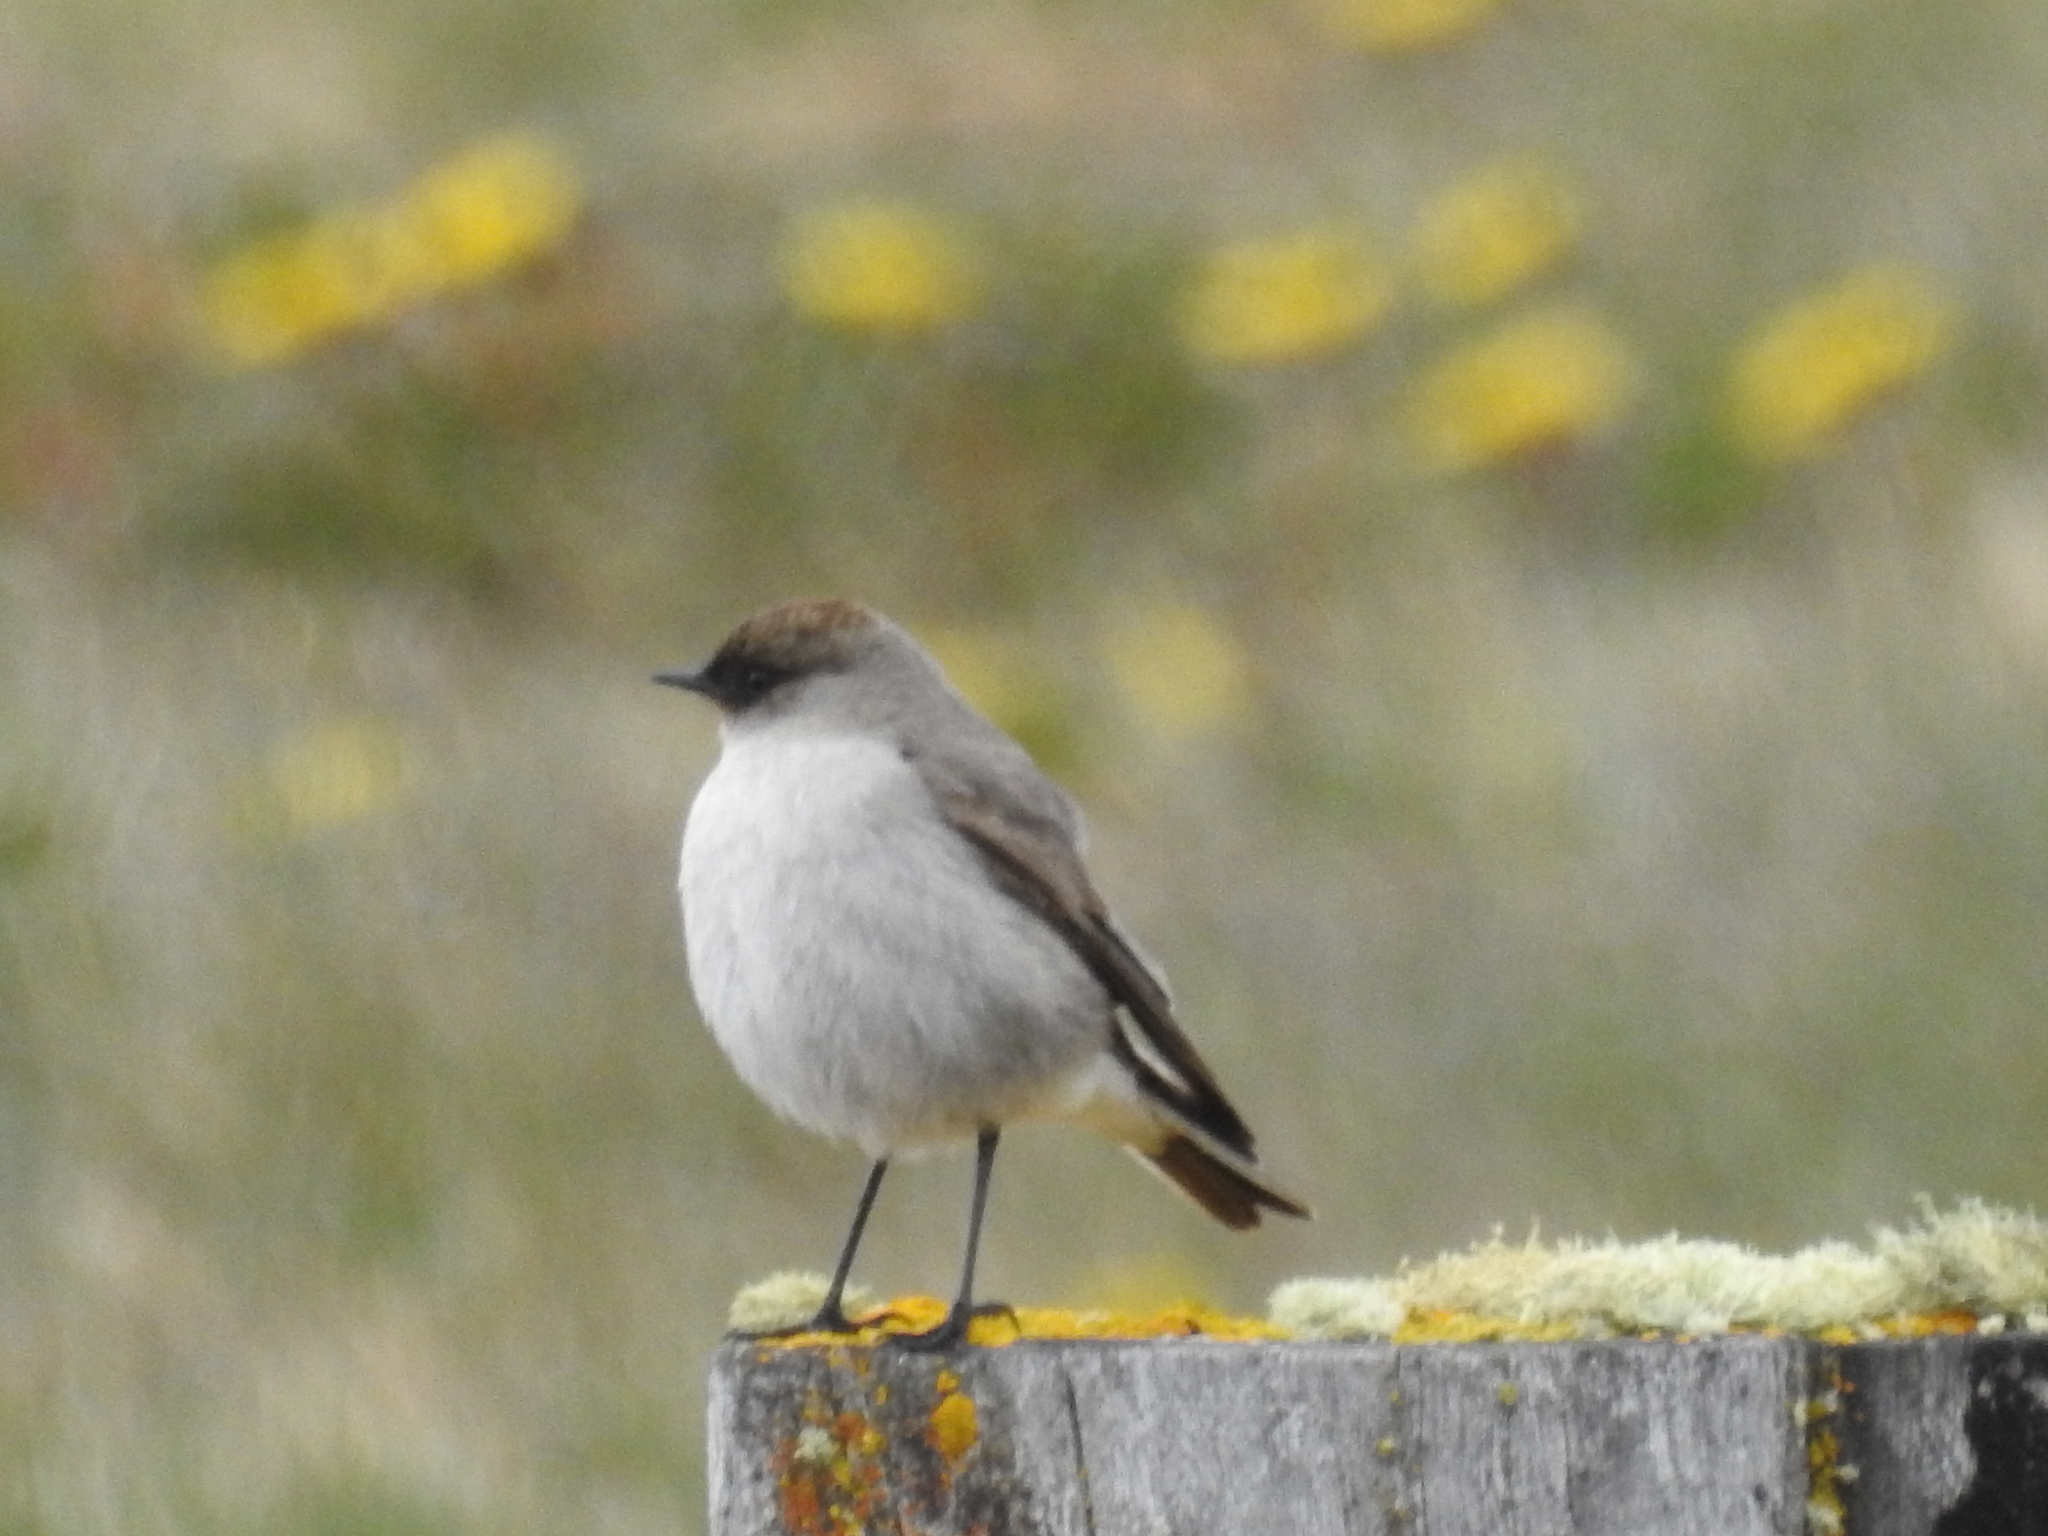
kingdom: Animalia
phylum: Chordata
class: Aves
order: Passeriformes
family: Tyrannidae
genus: Muscisaxicola
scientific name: Muscisaxicola maclovianus
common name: Dark-faced ground tyrant
